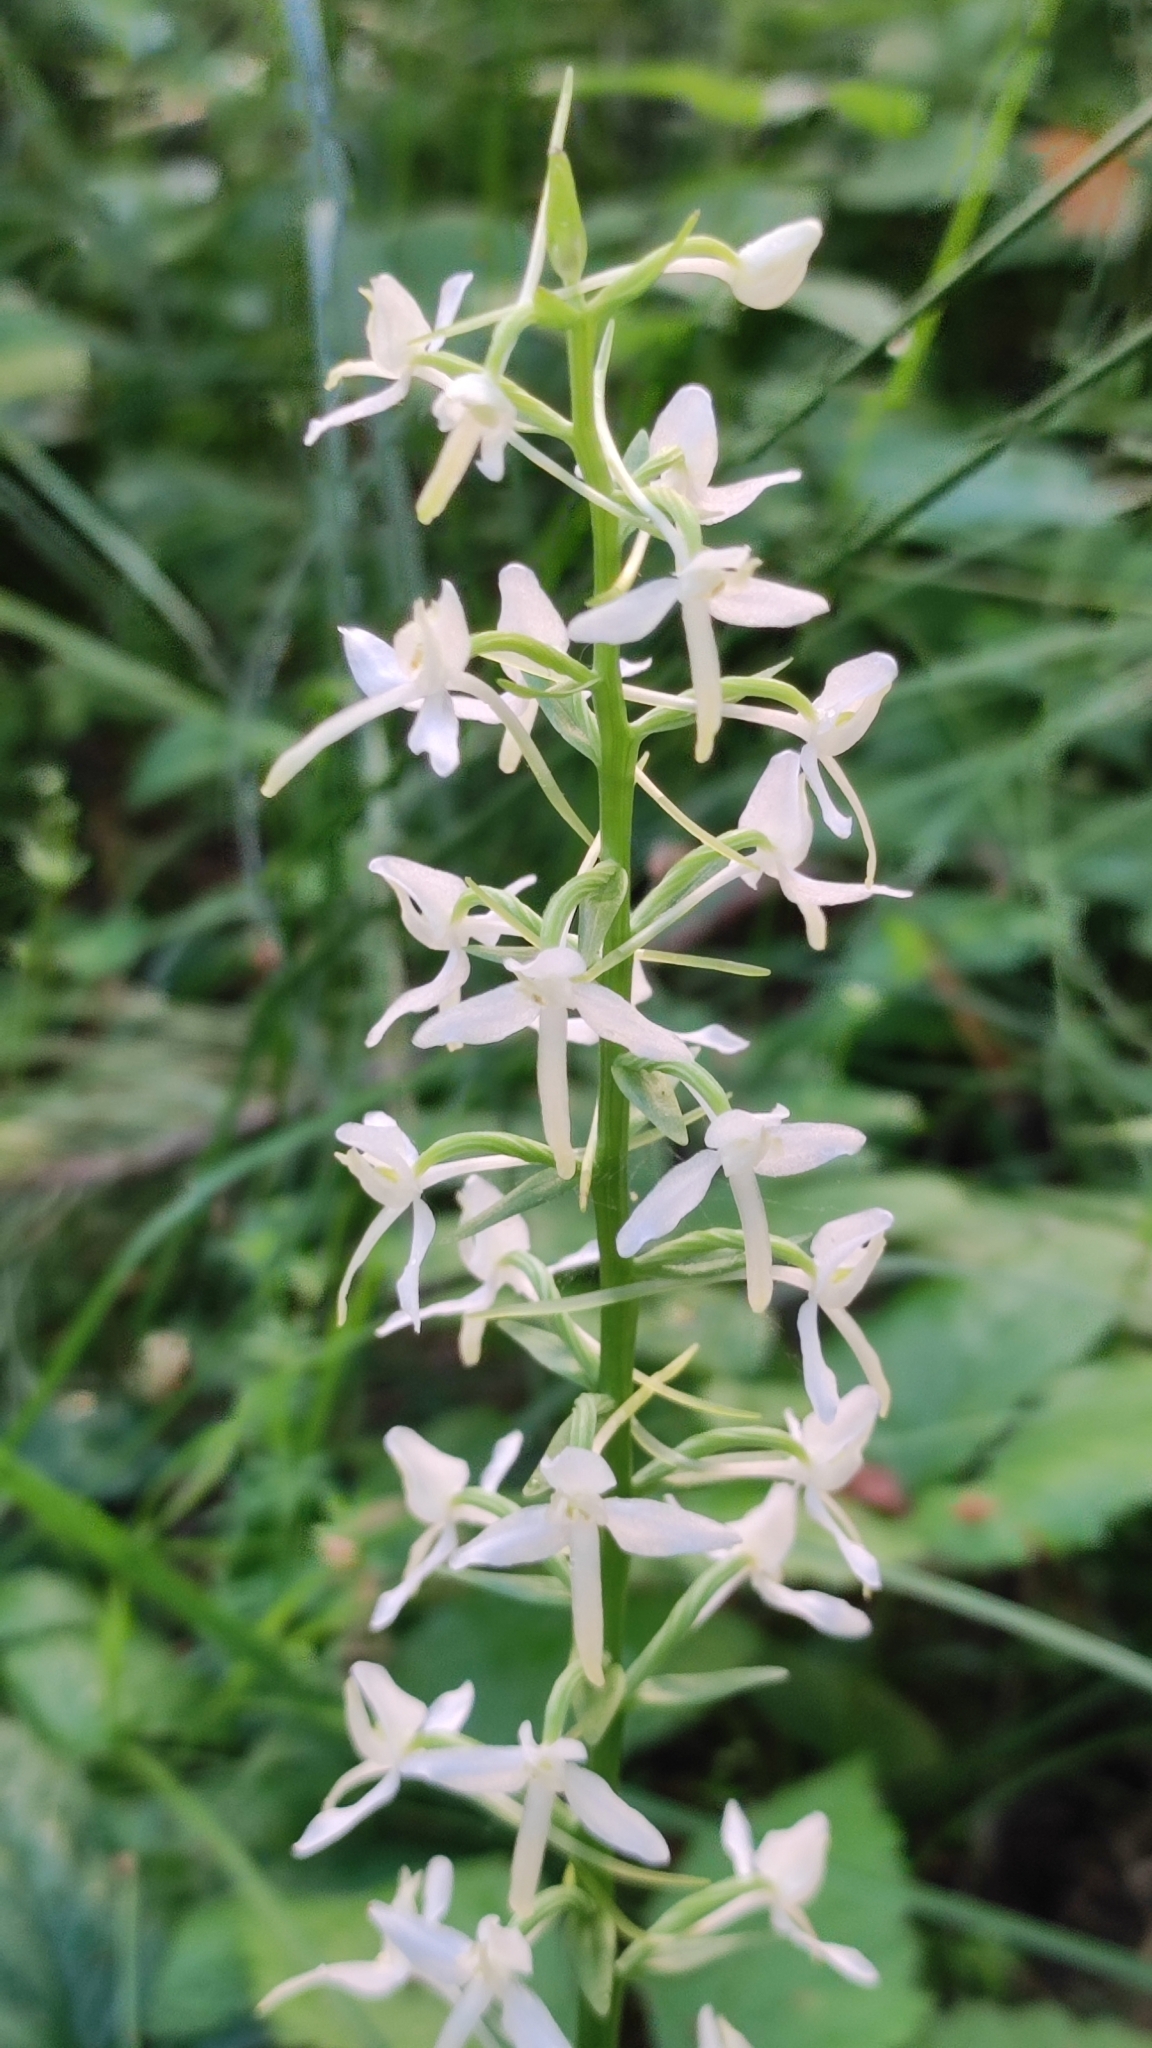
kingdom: Plantae
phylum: Tracheophyta
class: Liliopsida
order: Asparagales
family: Orchidaceae
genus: Platanthera
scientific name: Platanthera bifolia
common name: Lesser butterfly-orchid
